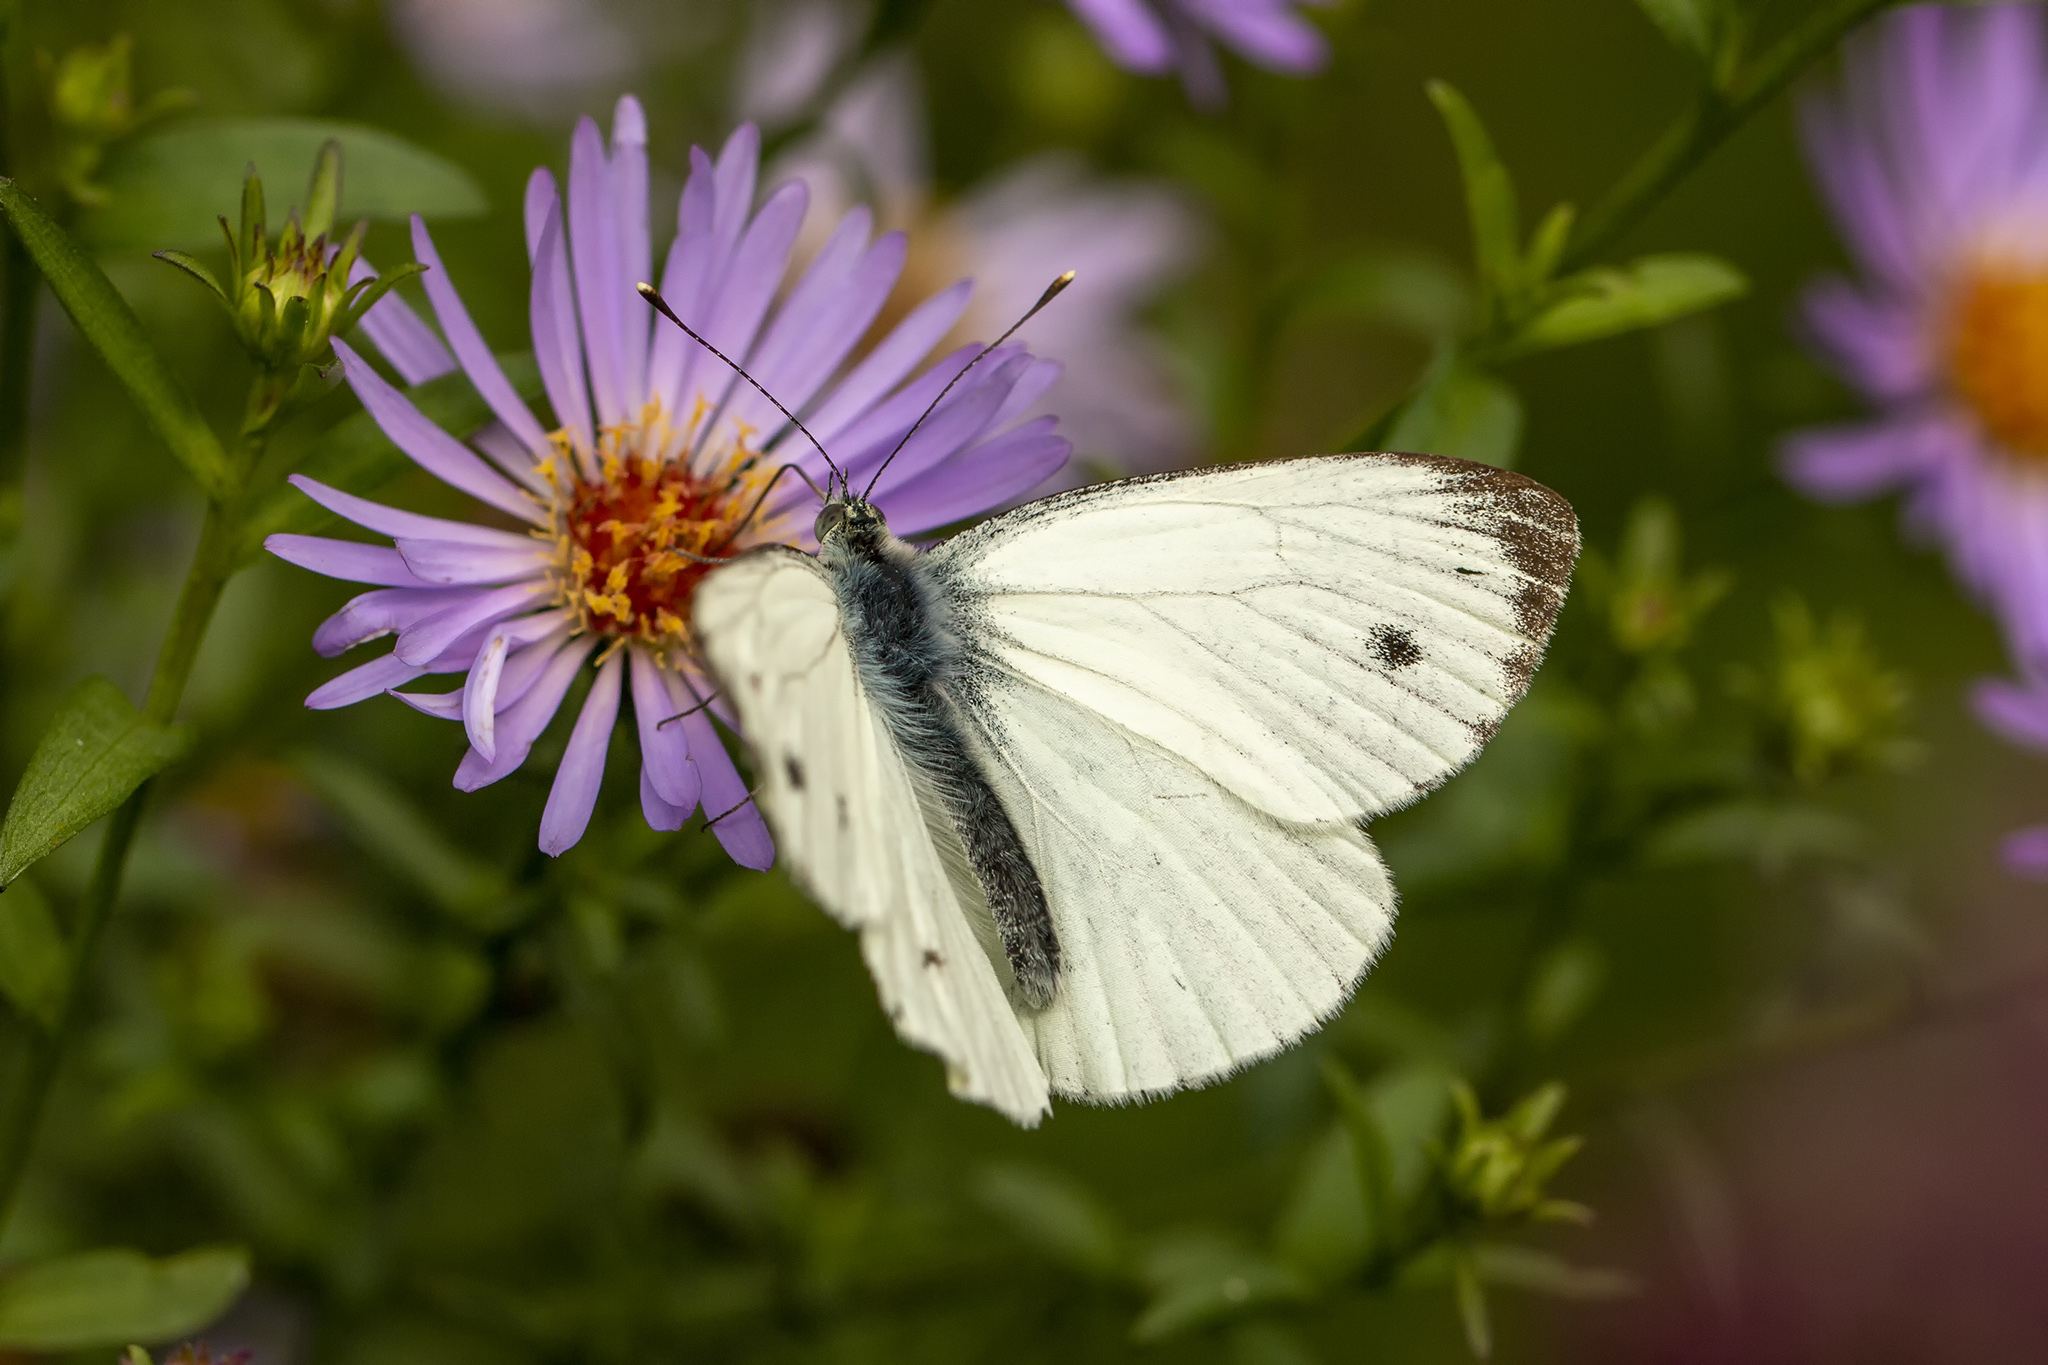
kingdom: Animalia
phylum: Arthropoda
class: Insecta
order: Lepidoptera
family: Pieridae
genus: Pieris
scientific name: Pieris napi
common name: Green-veined white
